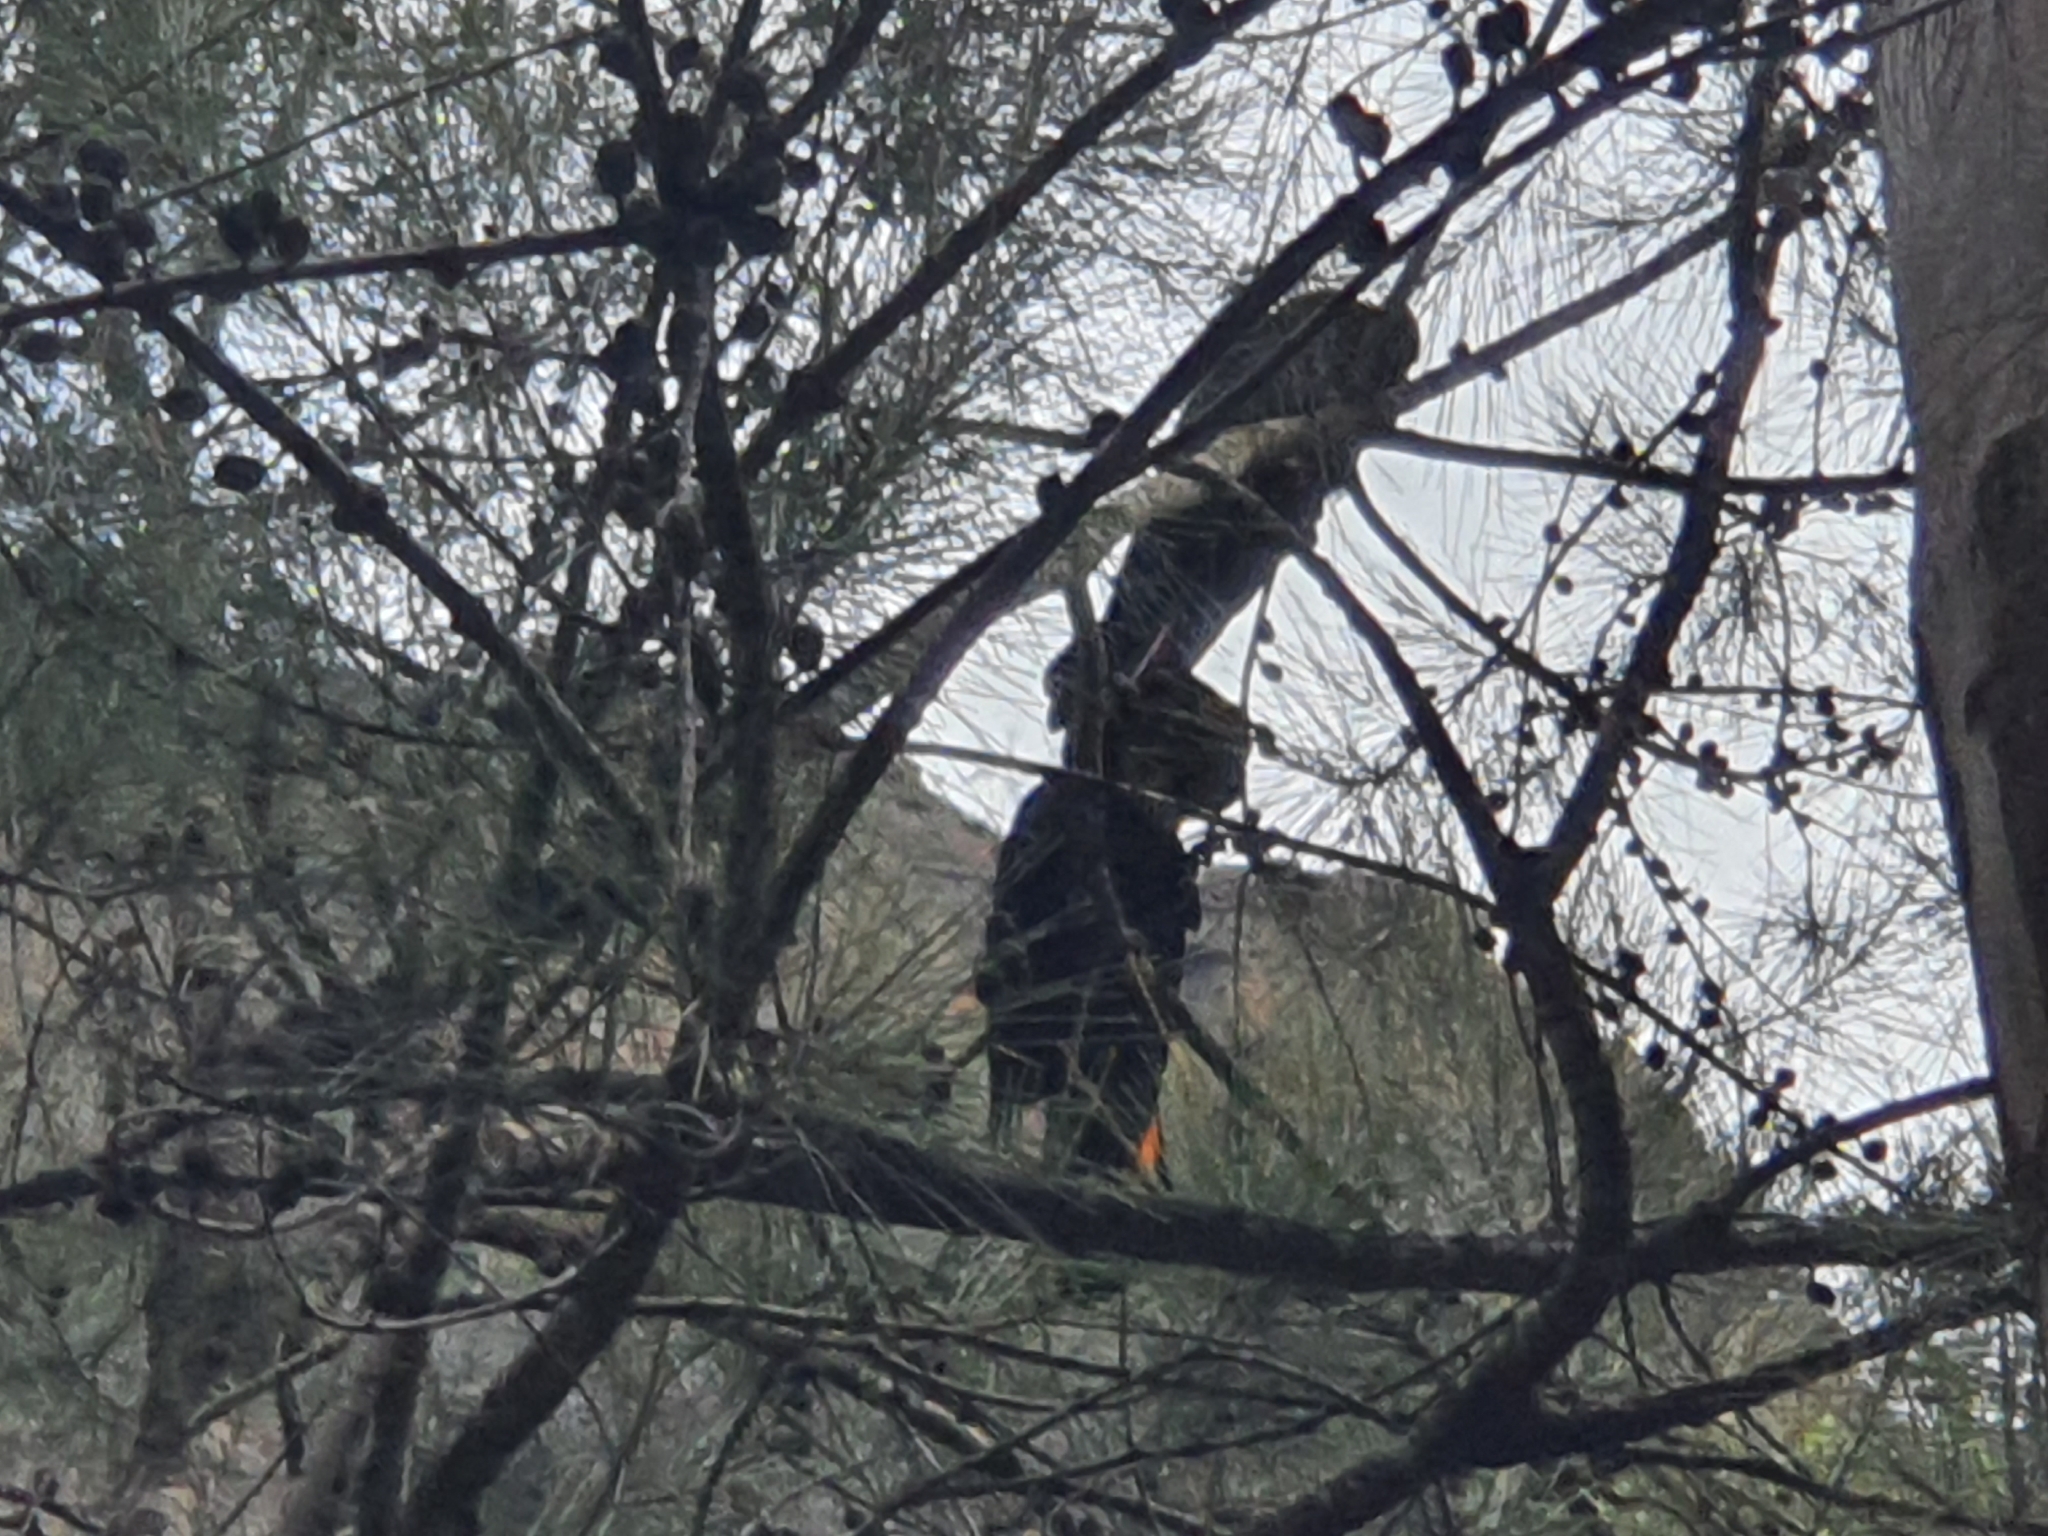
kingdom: Animalia
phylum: Chordata
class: Aves
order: Psittaciformes
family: Psittacidae
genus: Calyptorhynchus
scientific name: Calyptorhynchus lathami
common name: Glossy black cockatoo
